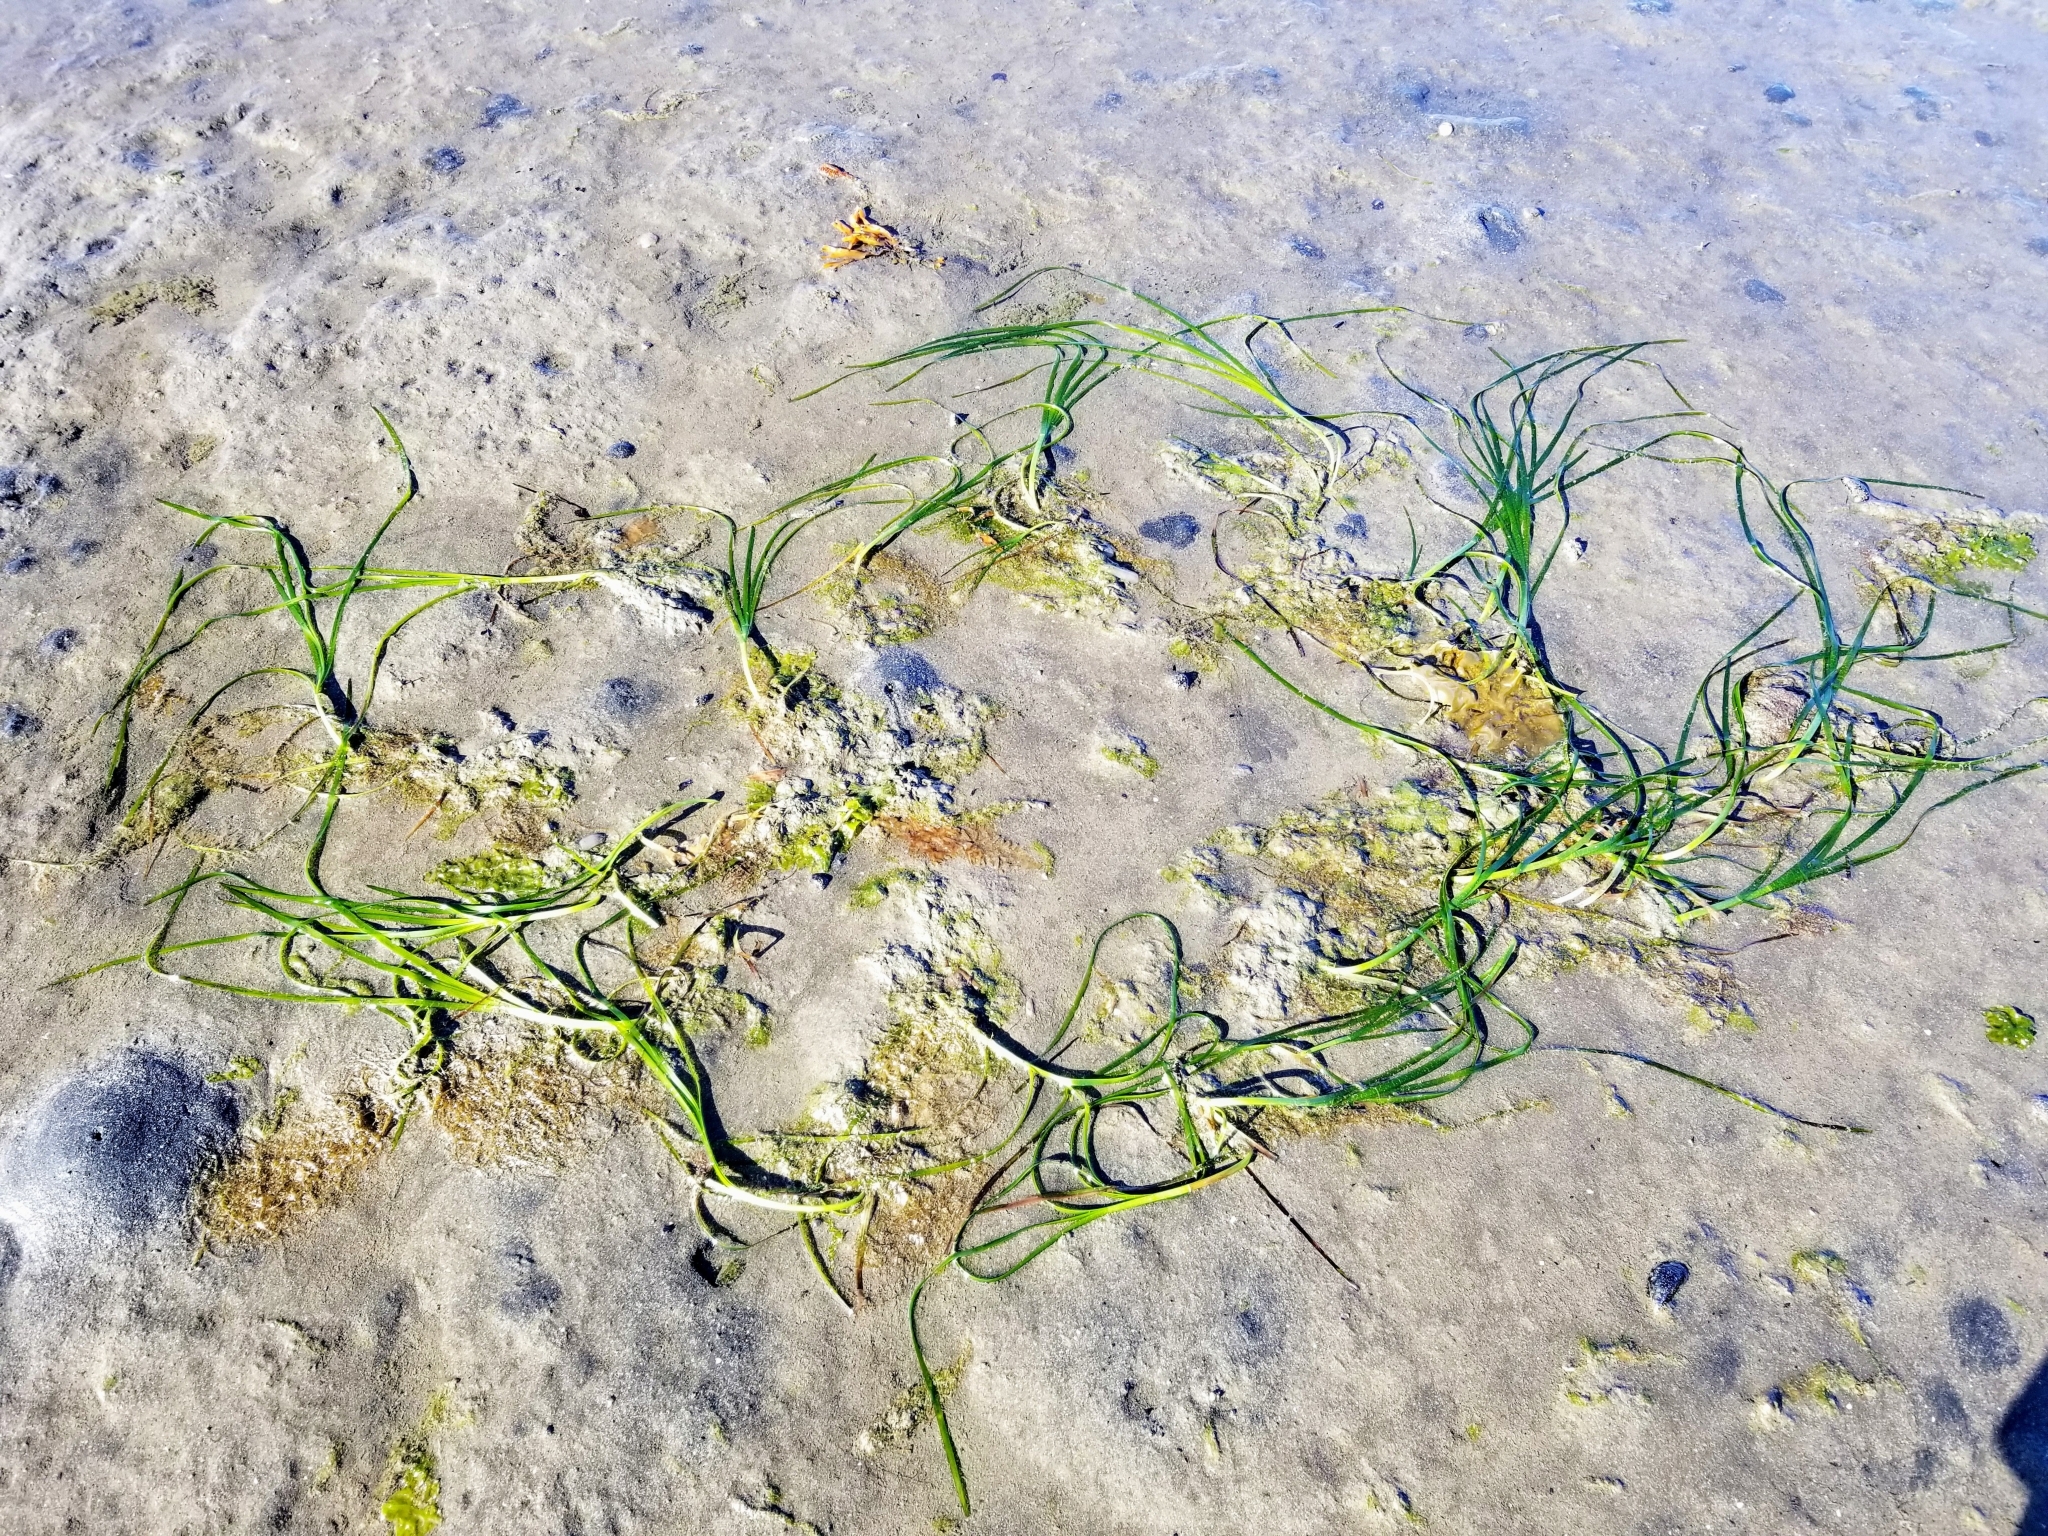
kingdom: Plantae
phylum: Tracheophyta
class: Liliopsida
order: Alismatales
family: Zosteraceae
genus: Zostera
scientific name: Zostera marina
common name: Eelgrass
